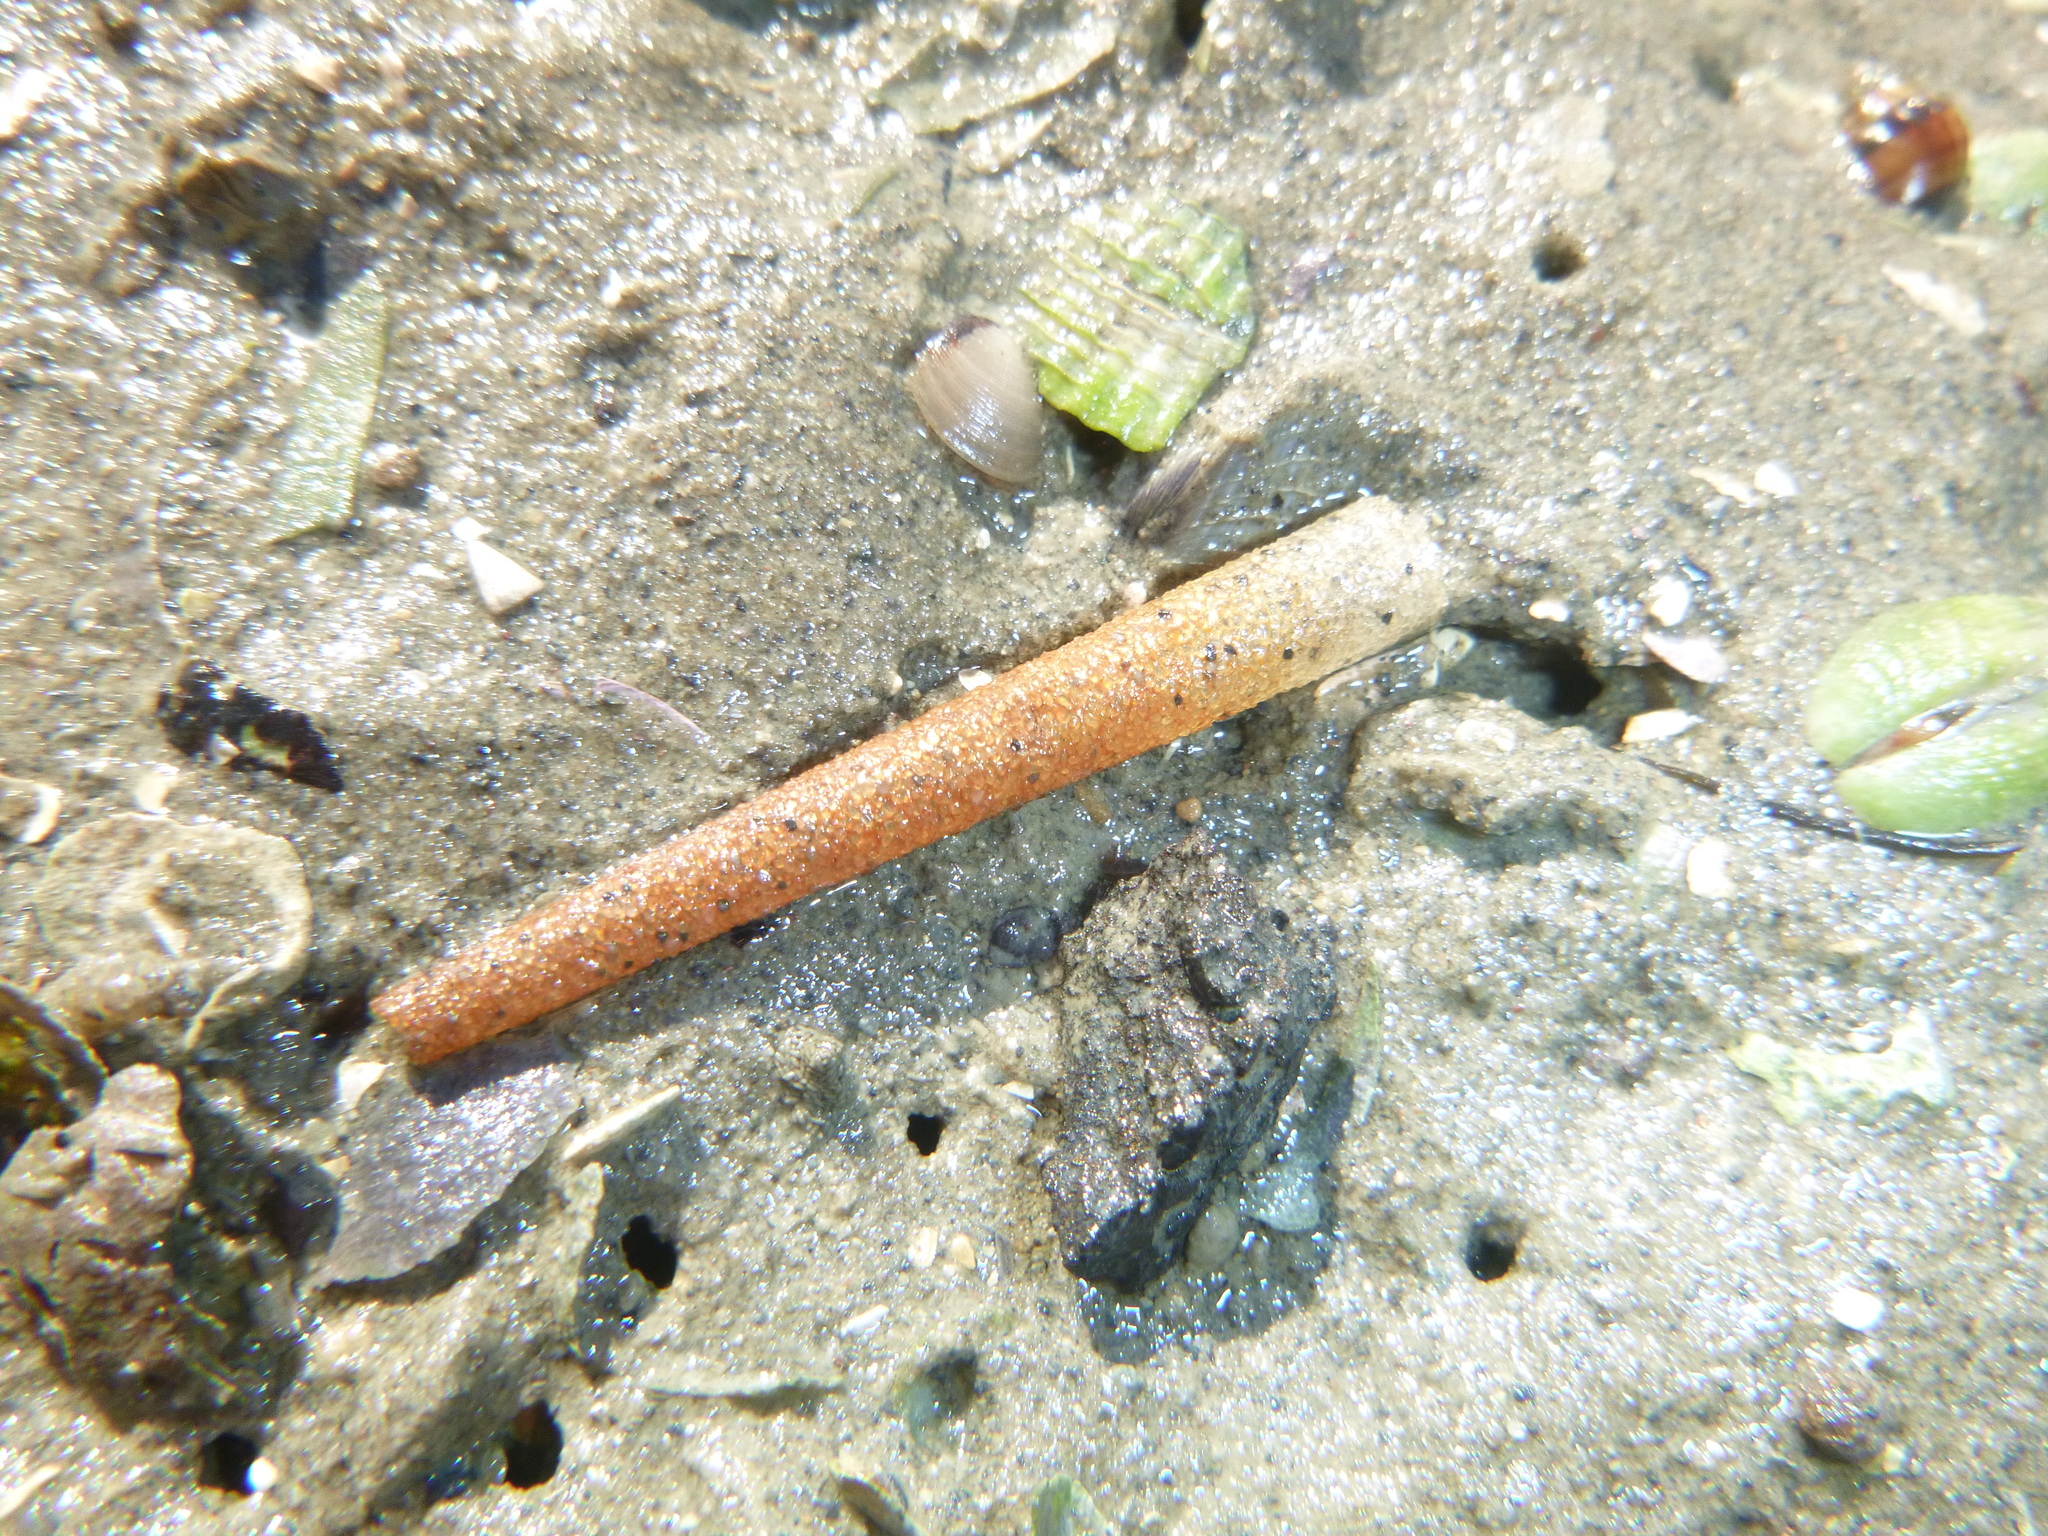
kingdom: Animalia
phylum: Annelida
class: Polychaeta
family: Pectinariidae
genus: Lagis
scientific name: Lagis australis
